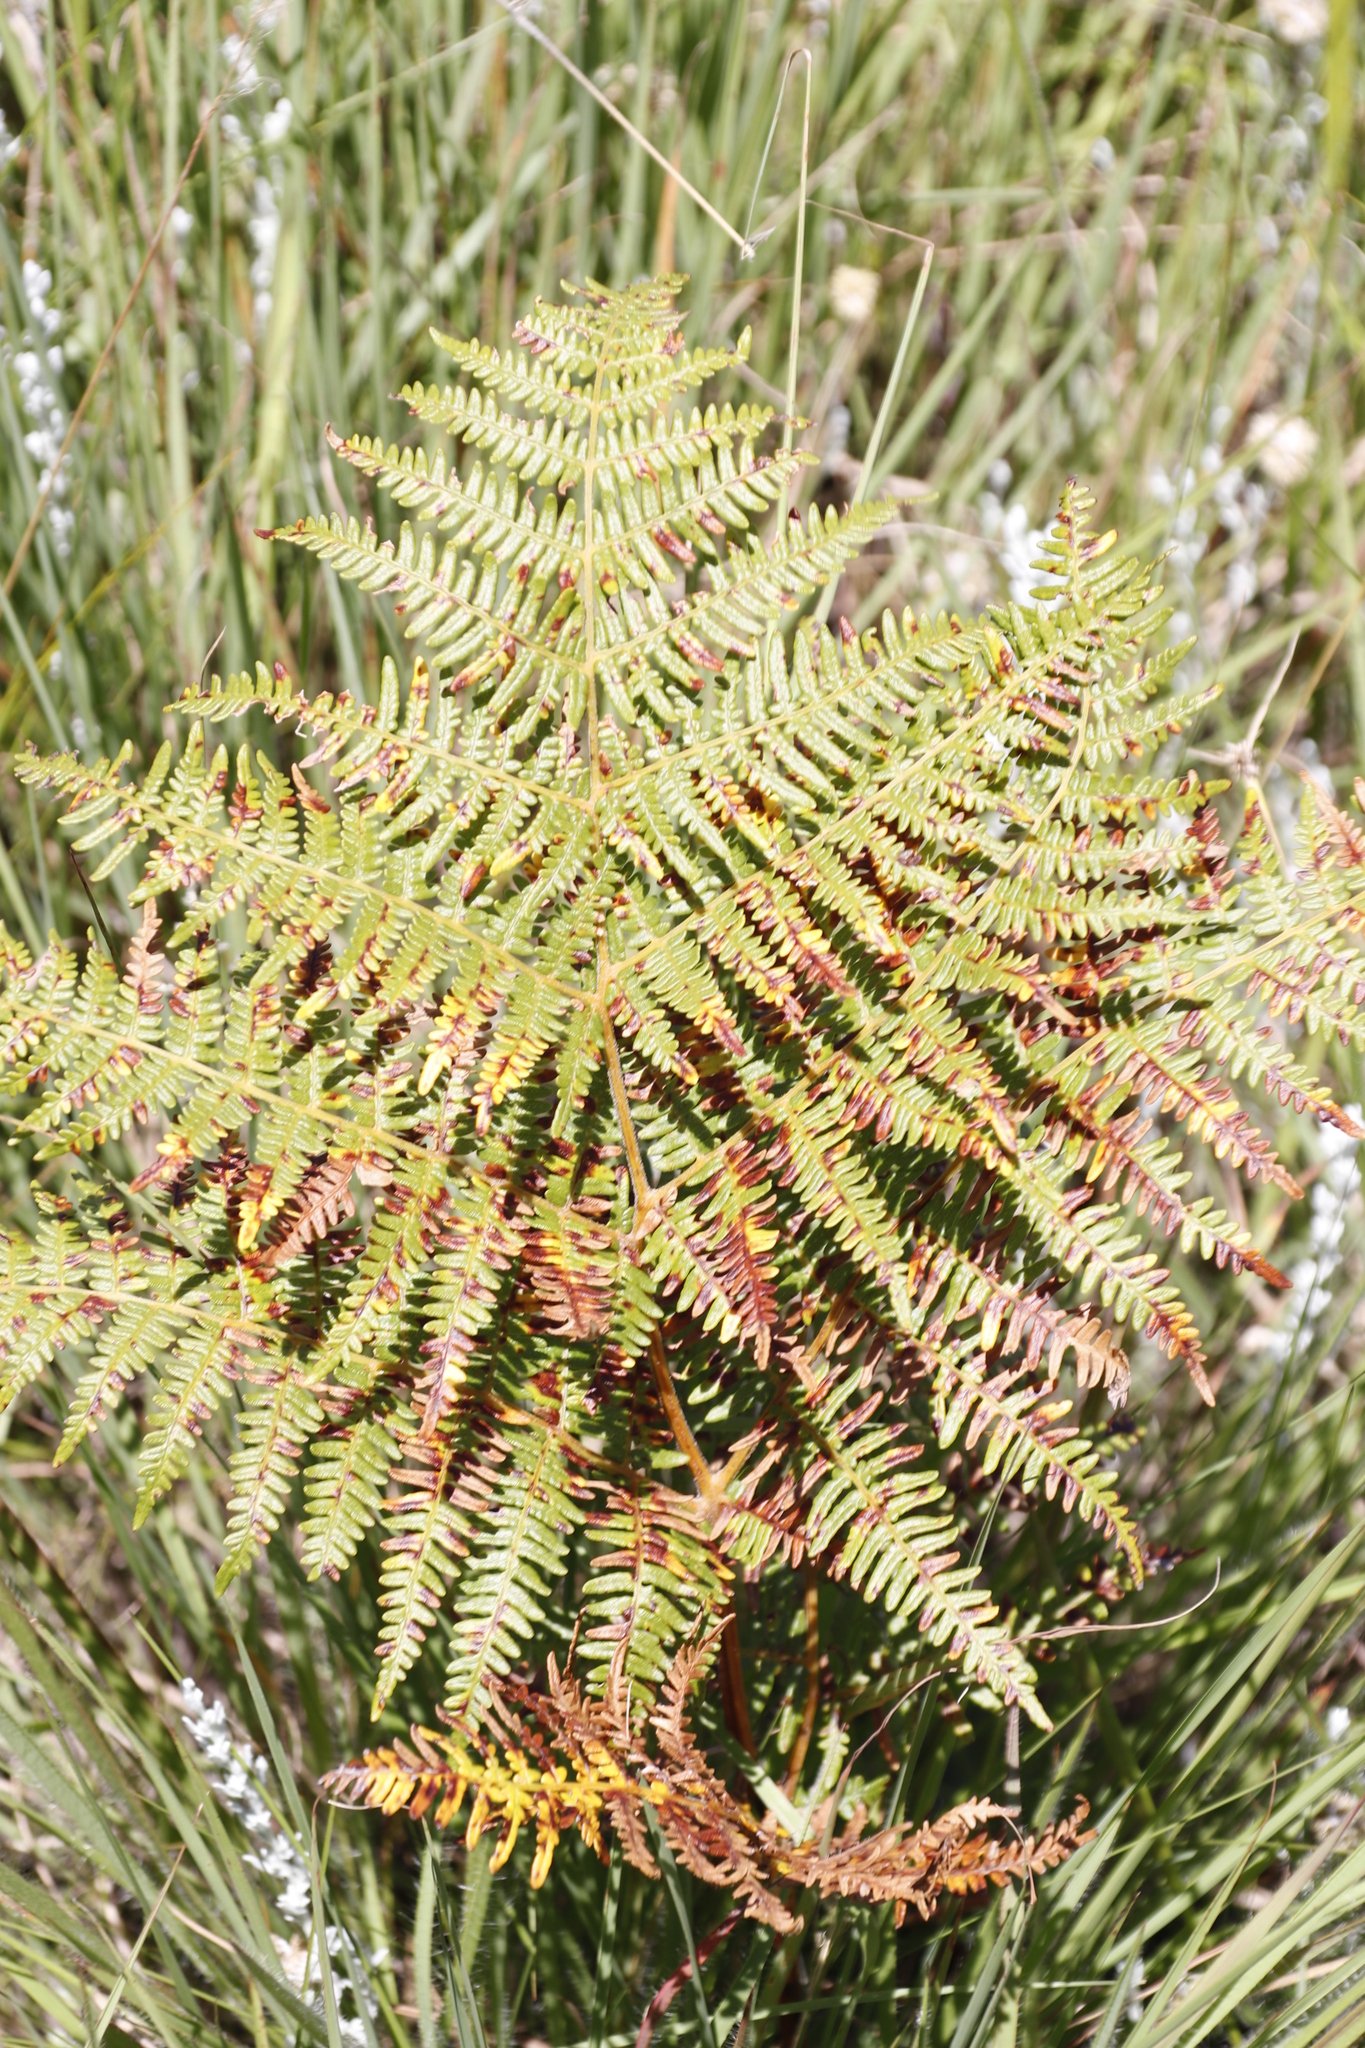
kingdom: Plantae
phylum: Tracheophyta
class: Polypodiopsida
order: Polypodiales
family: Dennstaedtiaceae
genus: Pteridium
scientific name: Pteridium aquilinum
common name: Bracken
